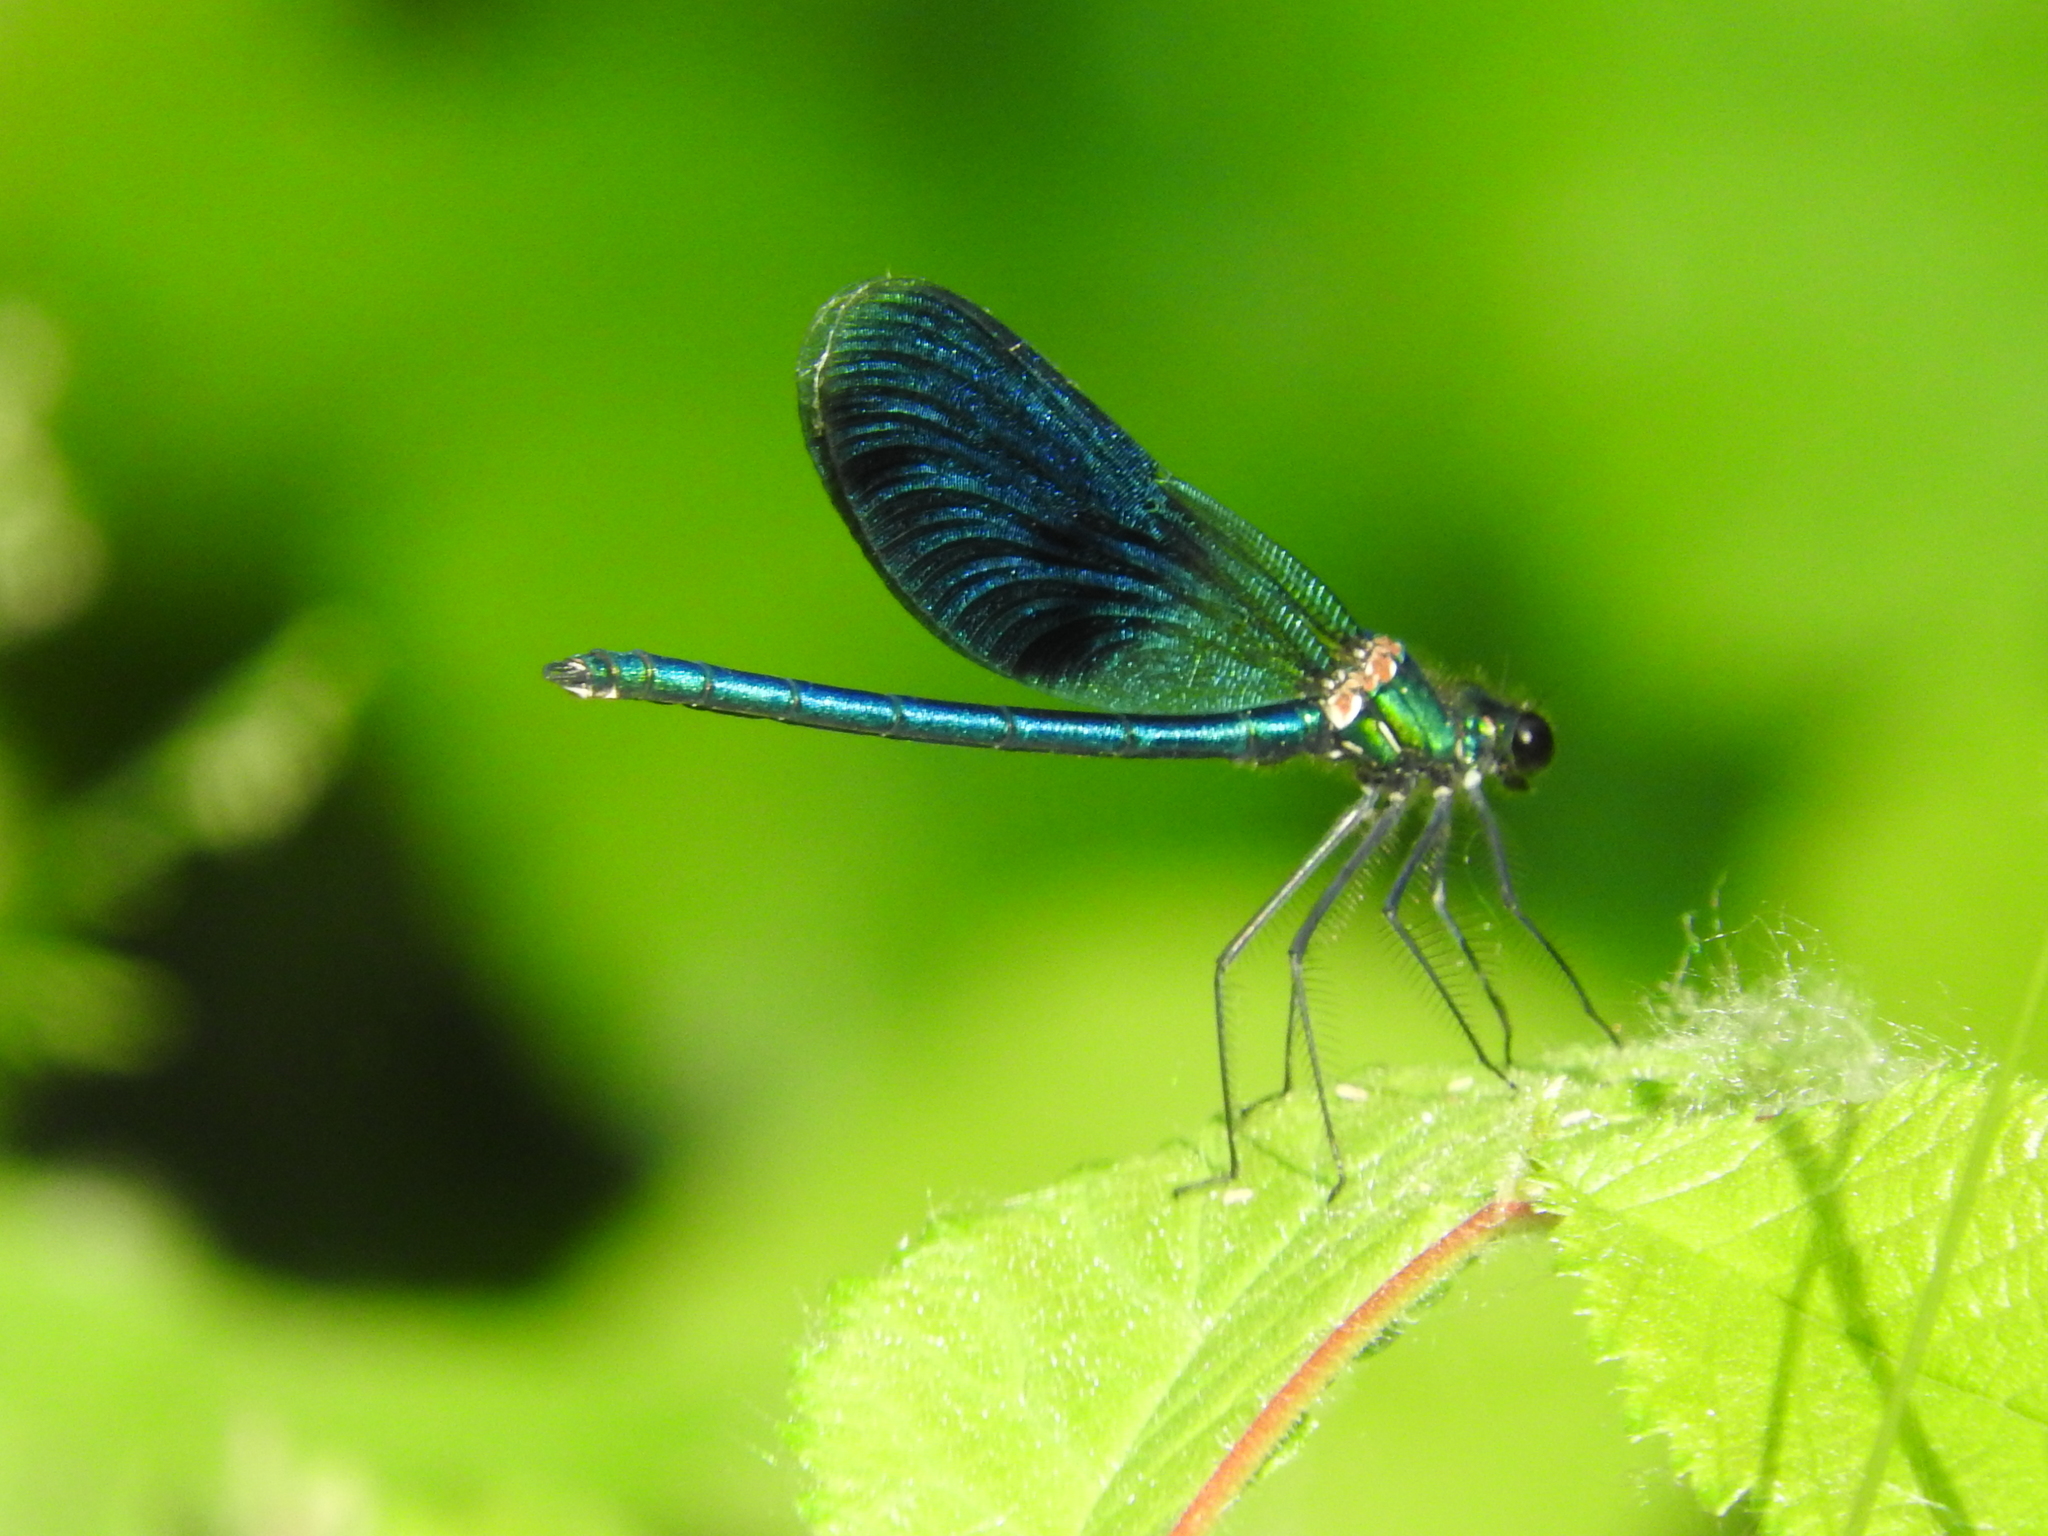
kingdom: Animalia
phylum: Arthropoda
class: Insecta
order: Odonata
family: Calopterygidae
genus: Calopteryx
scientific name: Calopteryx splendens
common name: Banded demoiselle
